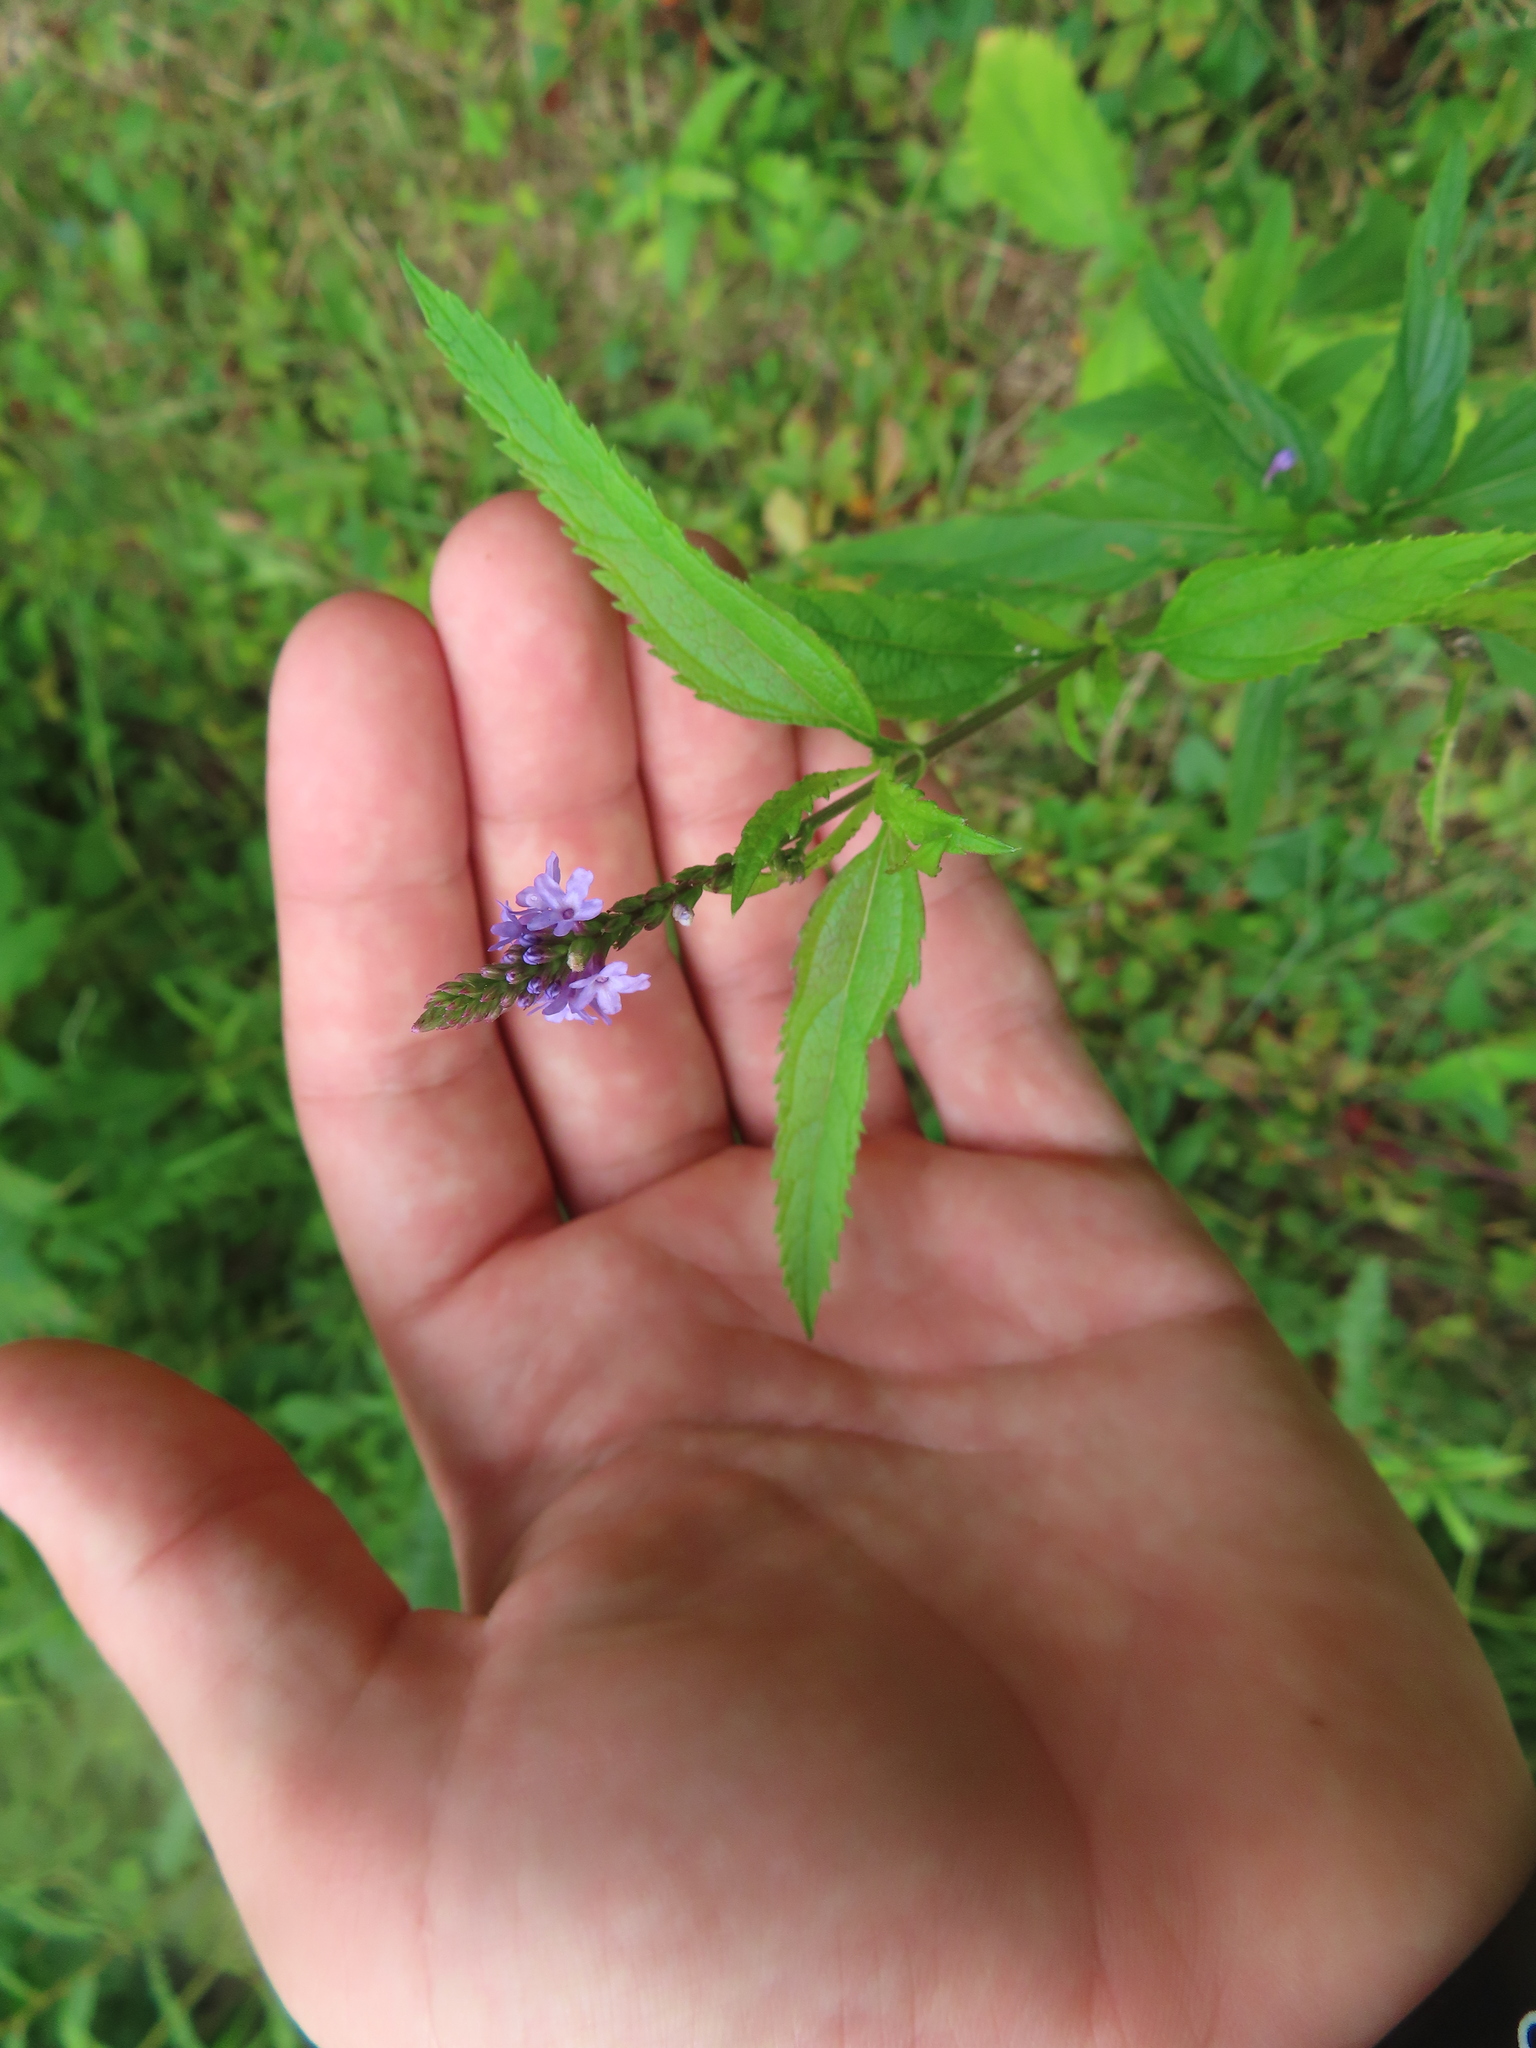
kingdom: Plantae
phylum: Tracheophyta
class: Magnoliopsida
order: Lamiales
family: Verbenaceae
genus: Verbena
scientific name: Verbena hastata
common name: American blue vervain
